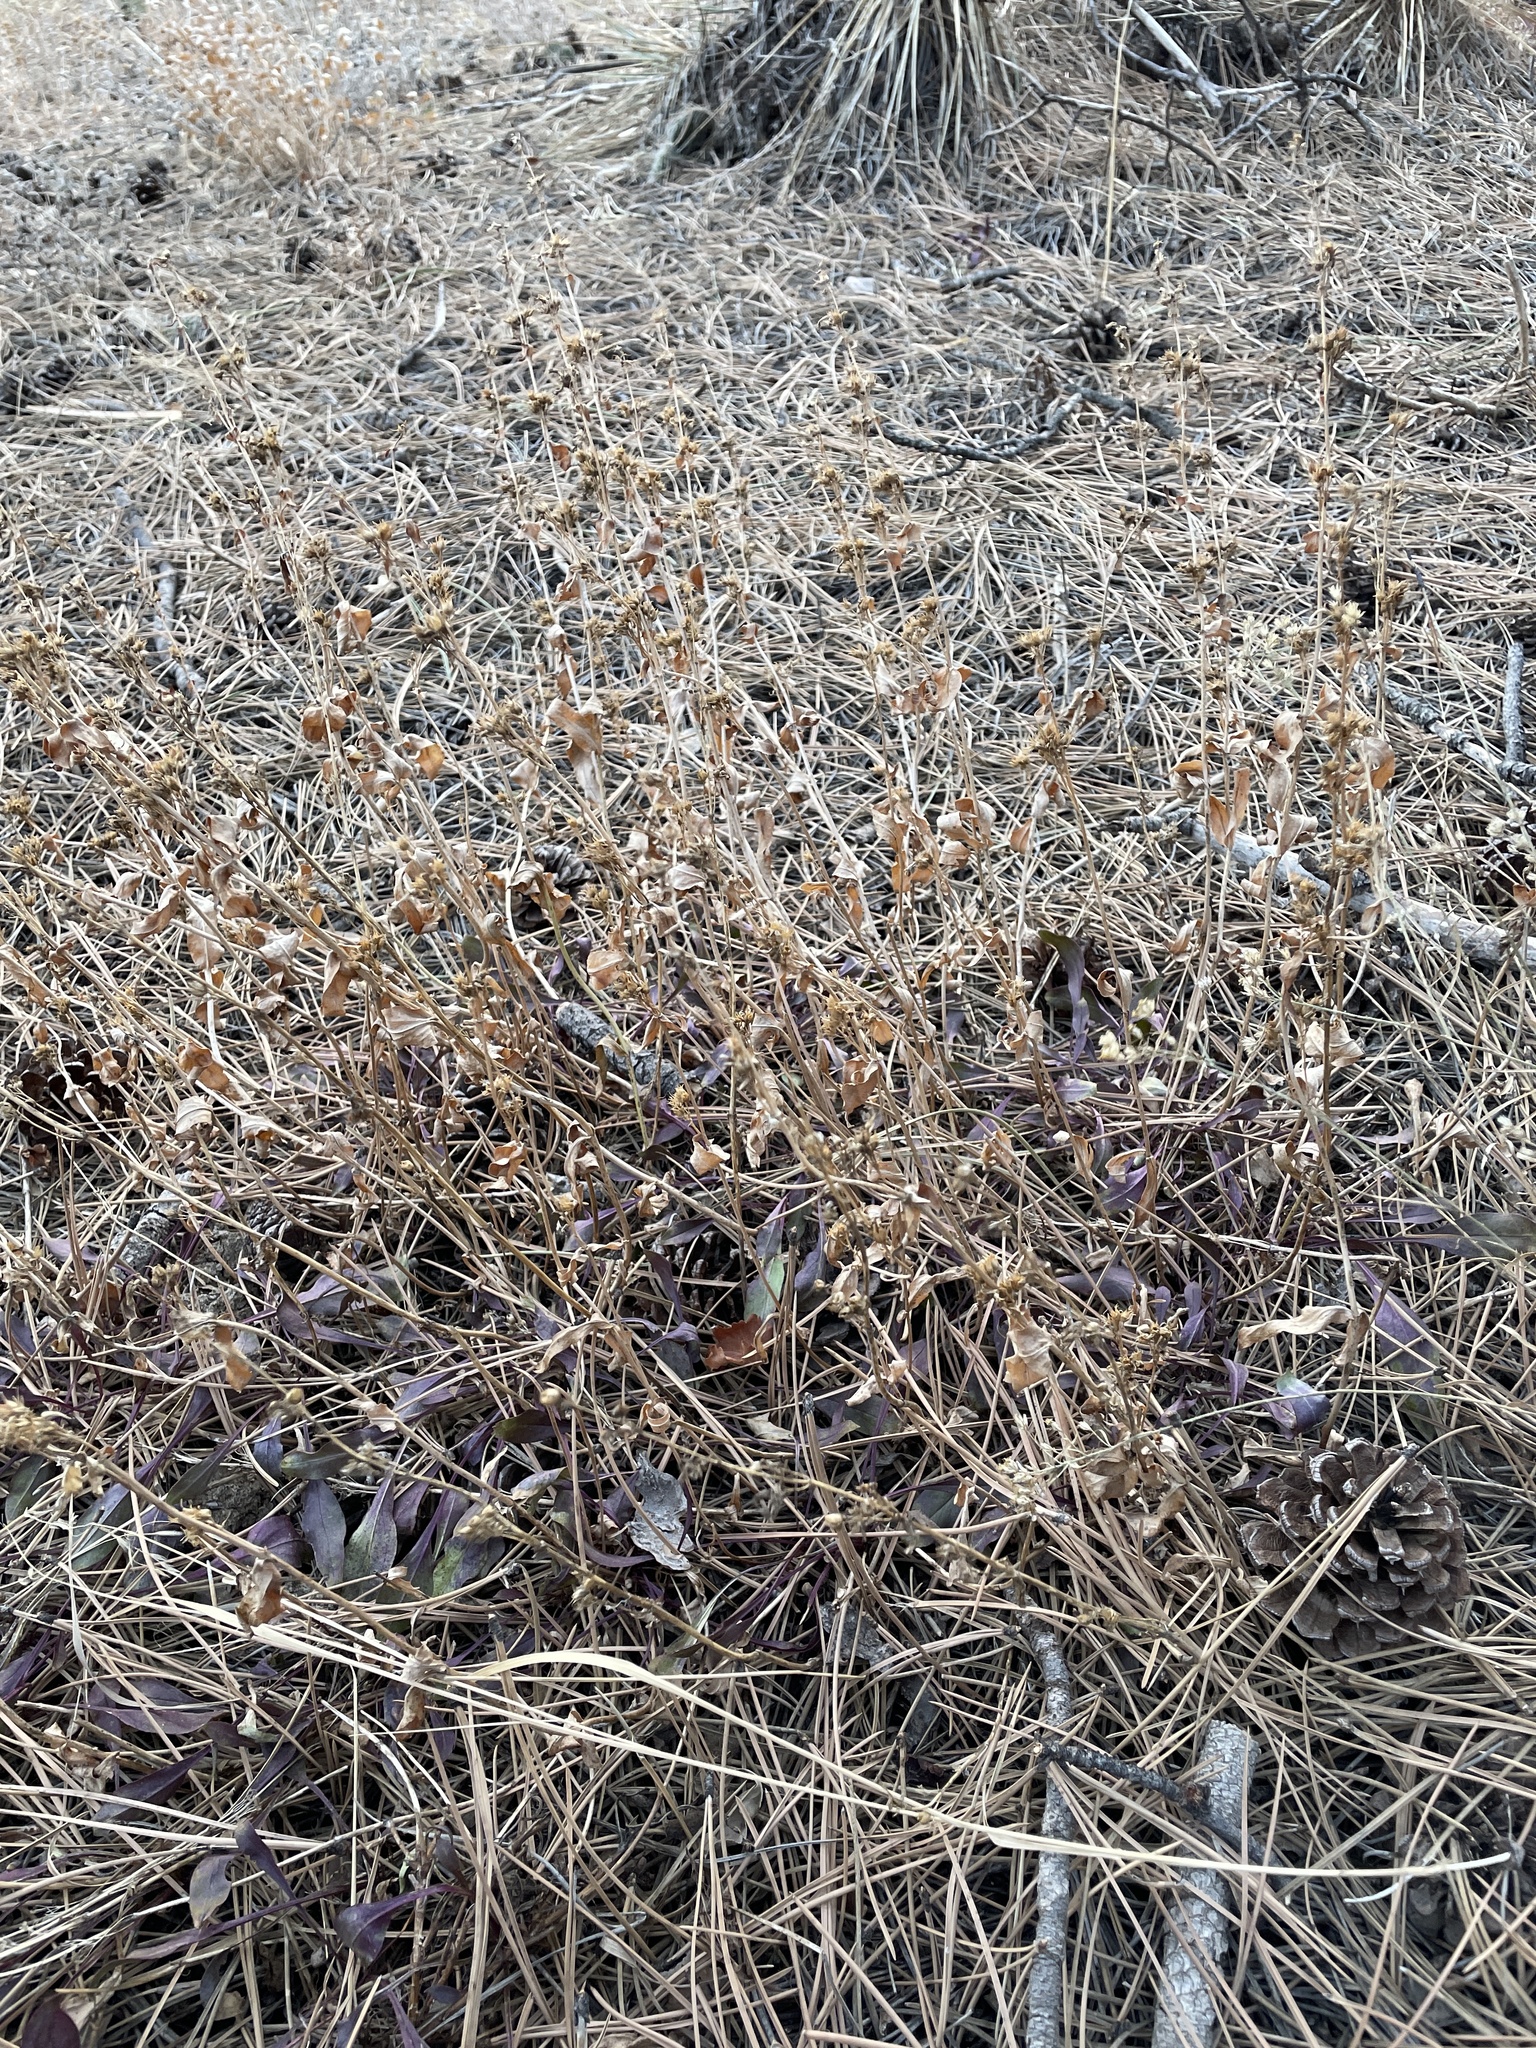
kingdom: Plantae
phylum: Tracheophyta
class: Magnoliopsida
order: Lamiales
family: Plantaginaceae
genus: Penstemon
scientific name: Penstemon virens
